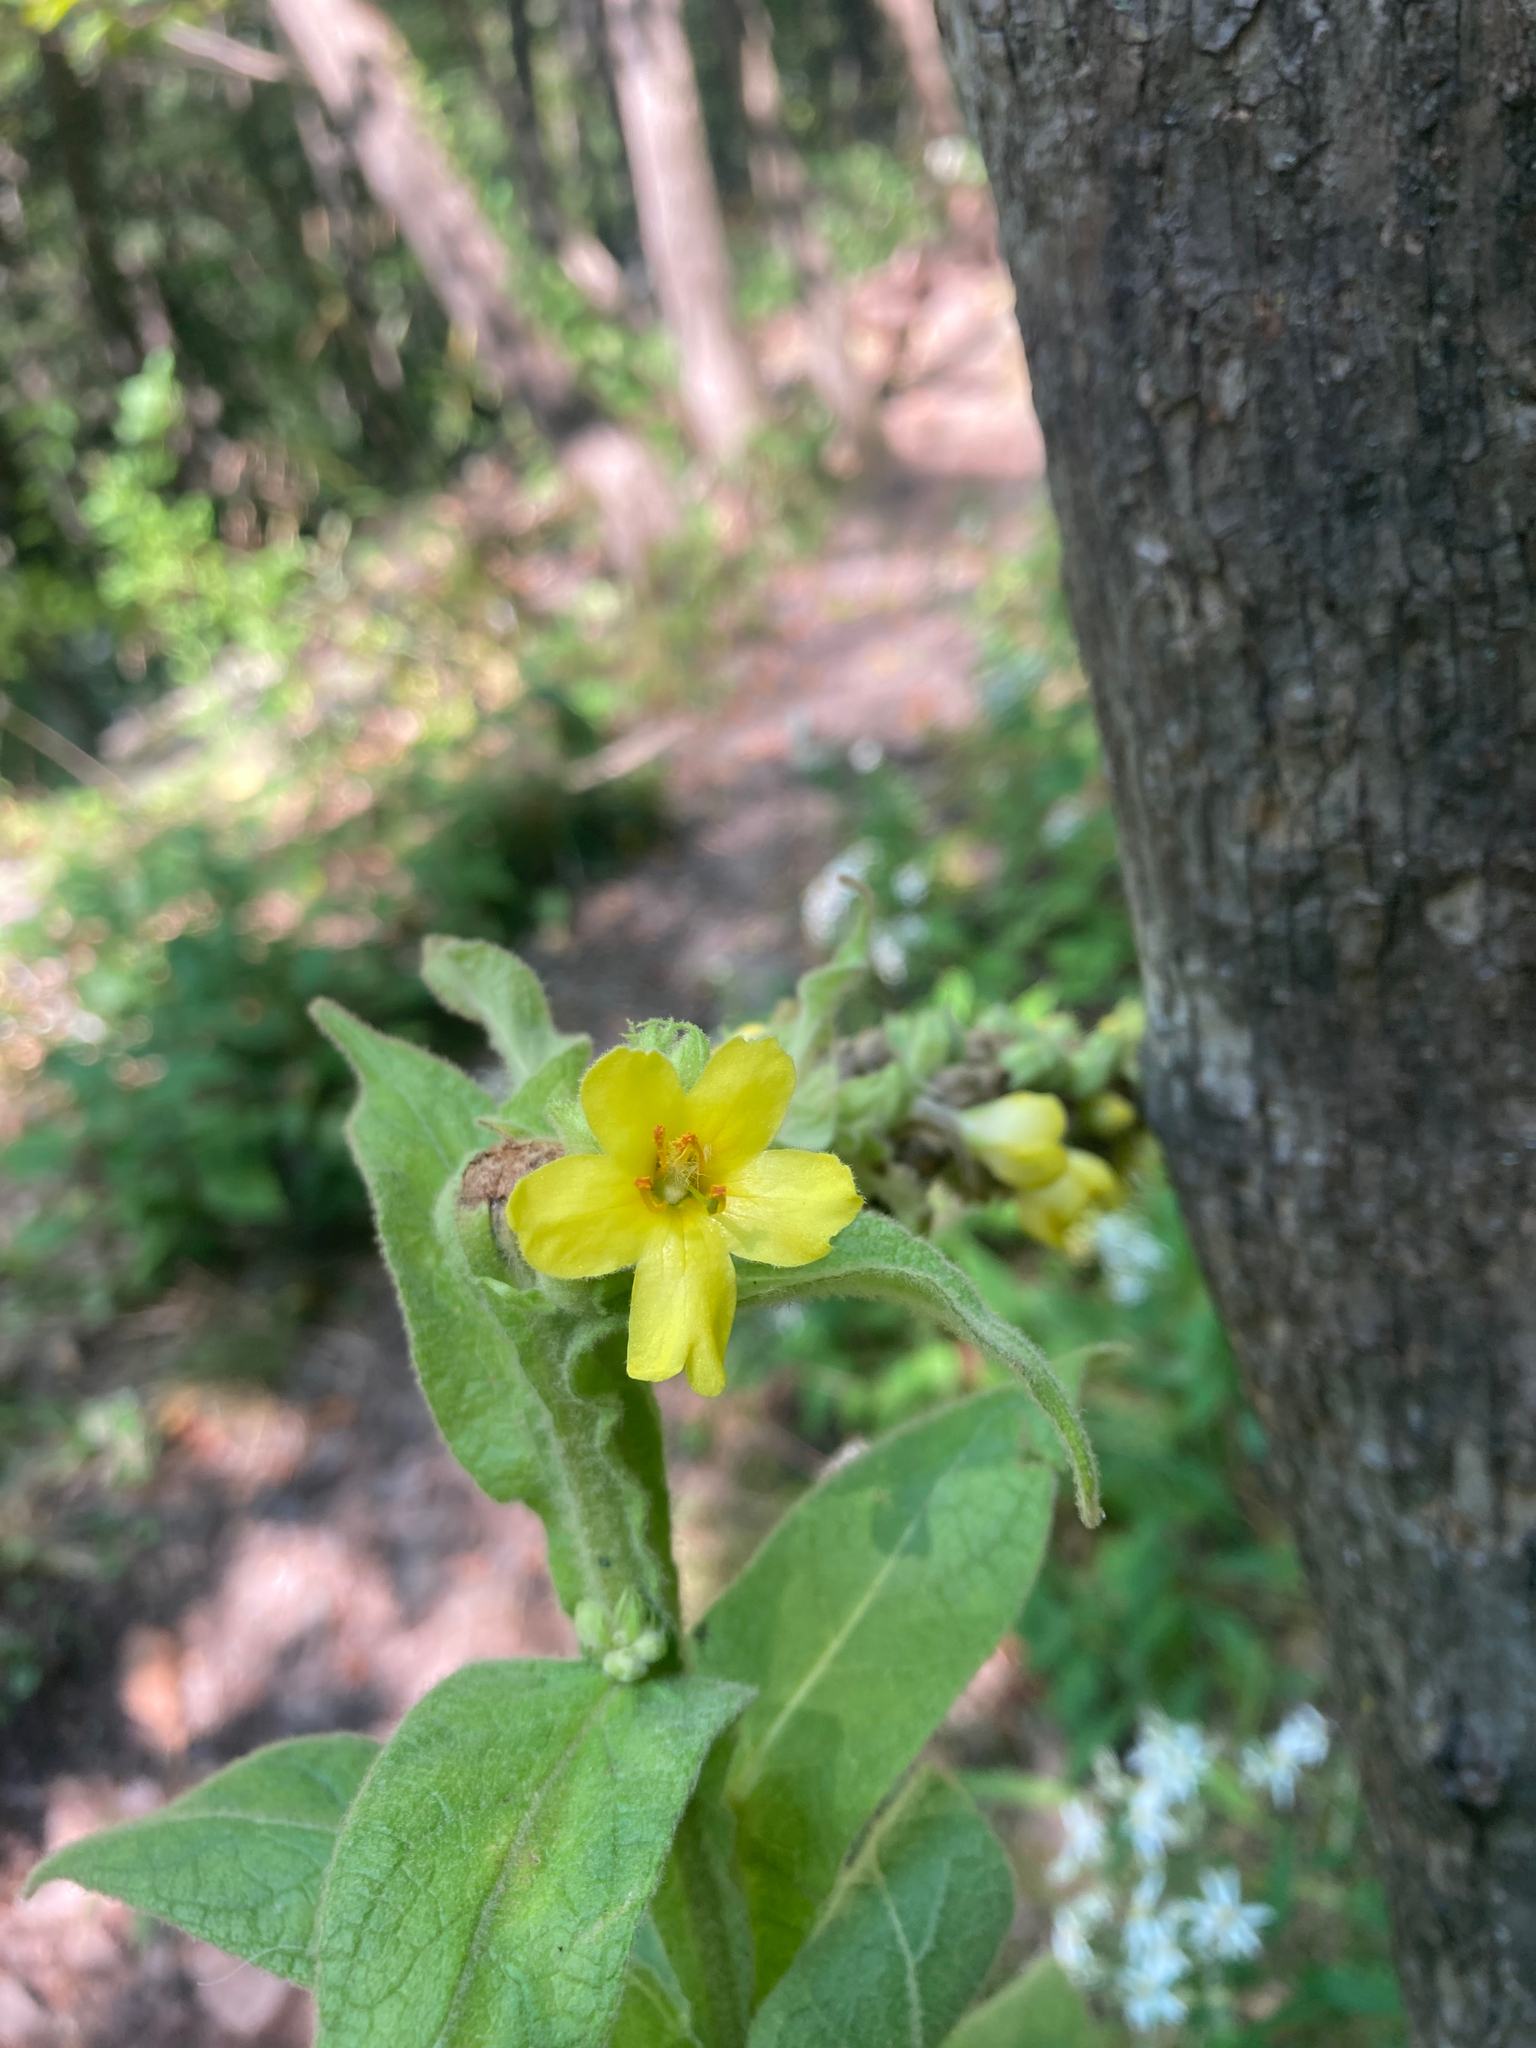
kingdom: Plantae
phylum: Tracheophyta
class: Magnoliopsida
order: Lamiales
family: Scrophulariaceae
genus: Verbascum
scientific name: Verbascum thapsus
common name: Common mullein
